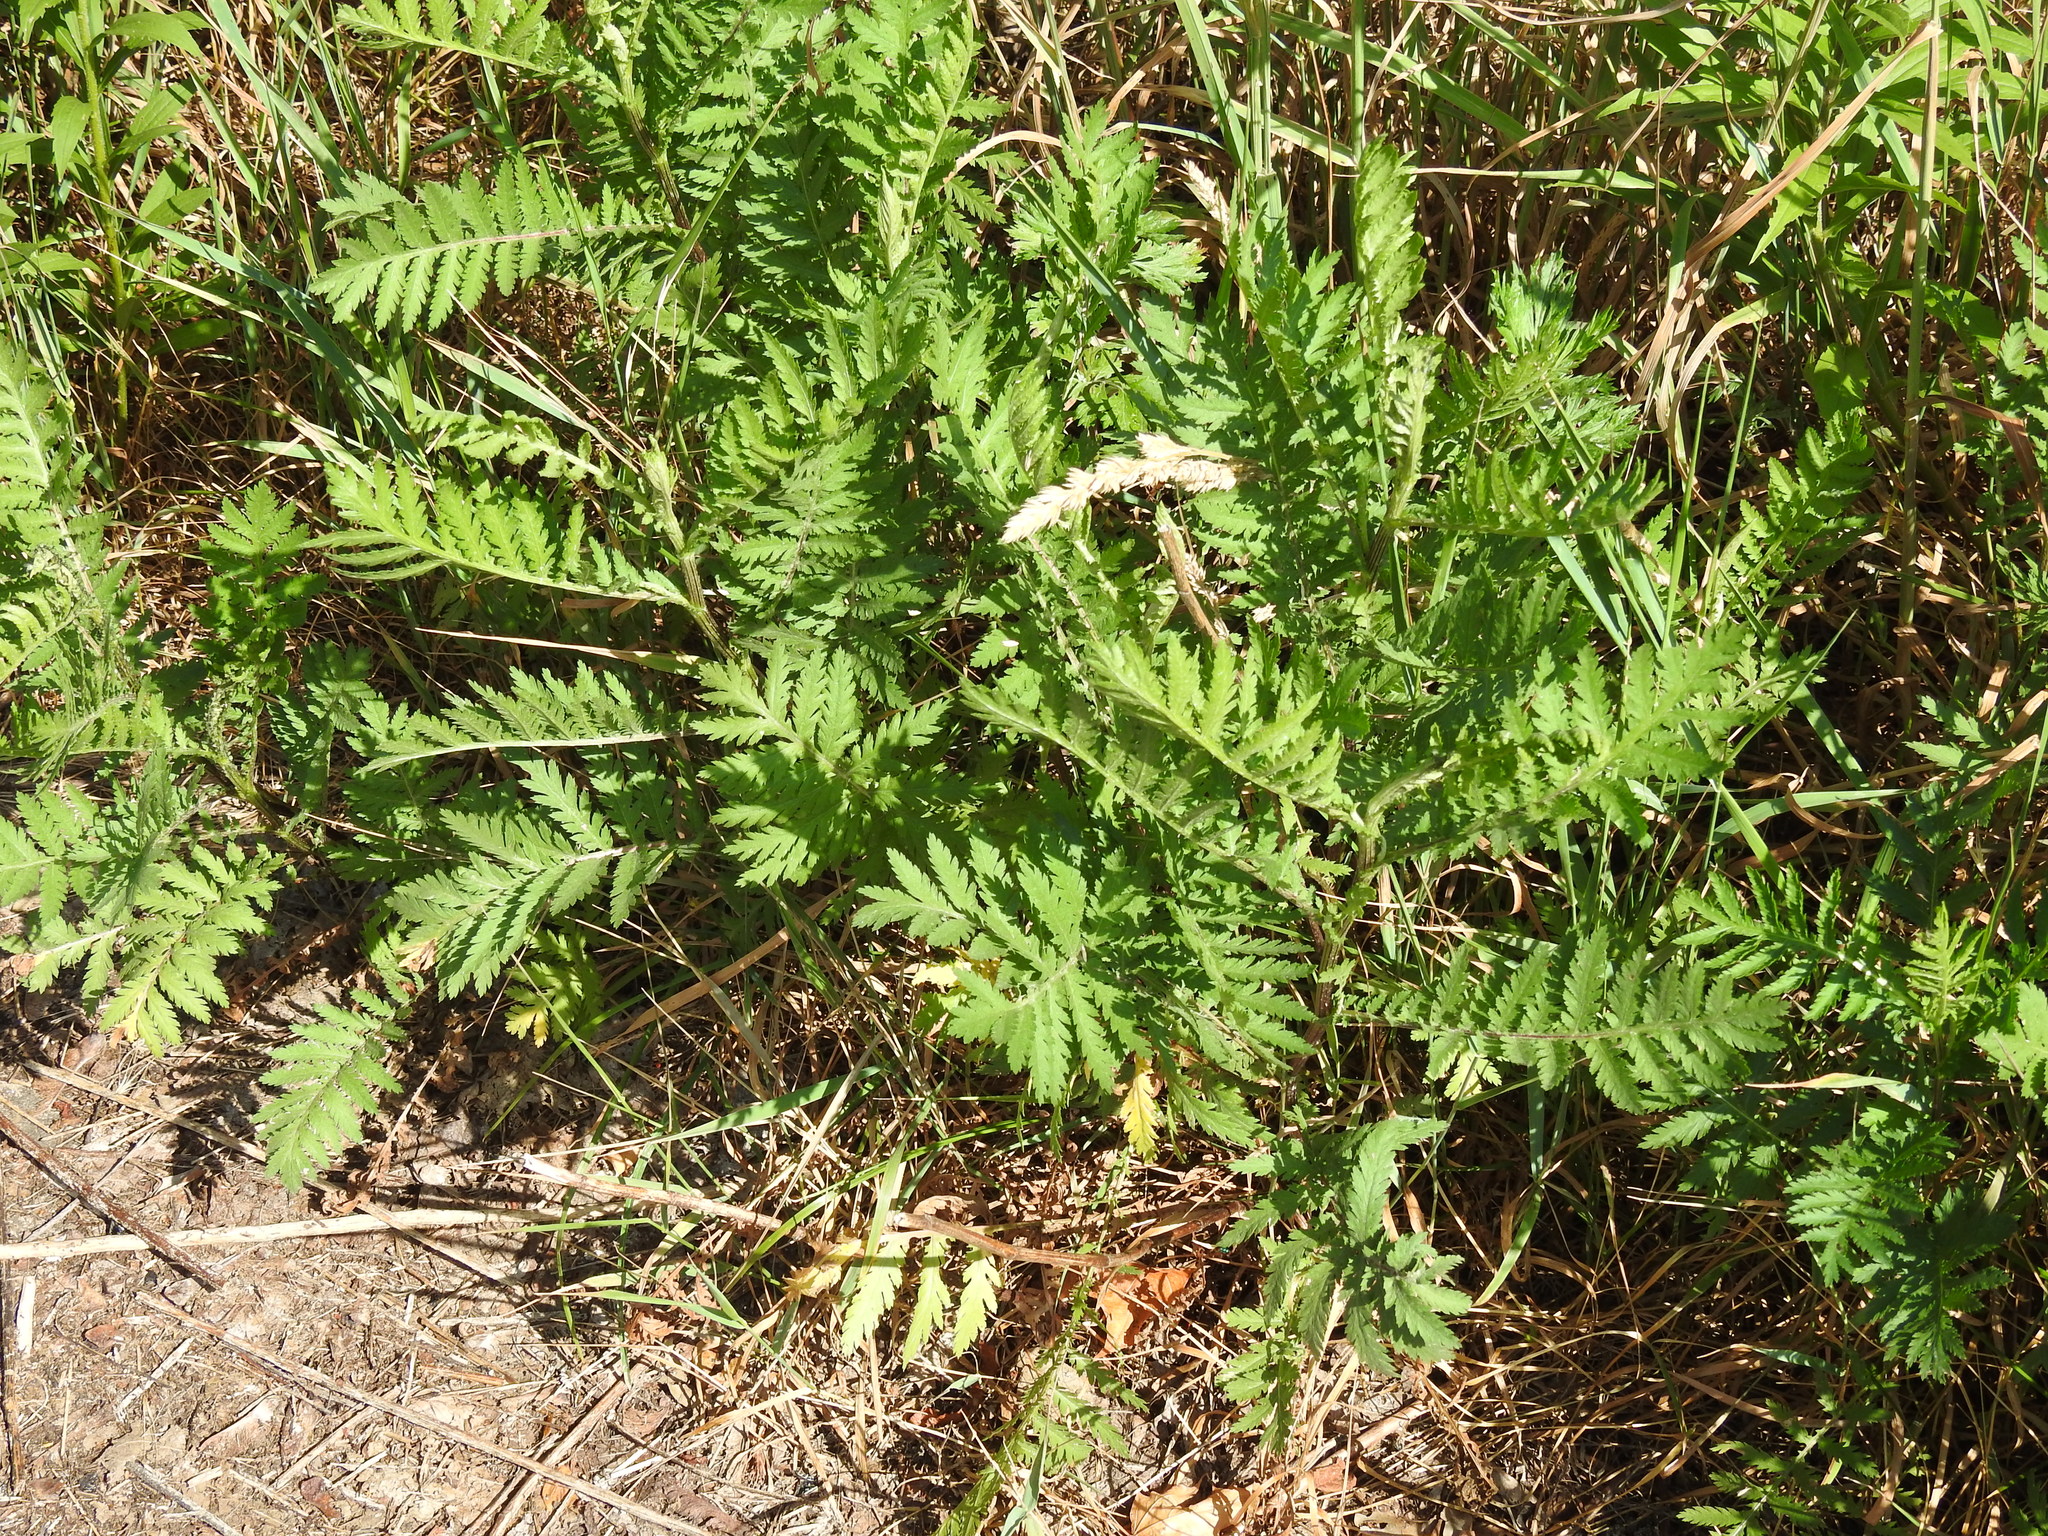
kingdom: Plantae
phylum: Tracheophyta
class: Magnoliopsida
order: Asterales
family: Asteraceae
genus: Tanacetum
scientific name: Tanacetum vulgare
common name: Common tansy
